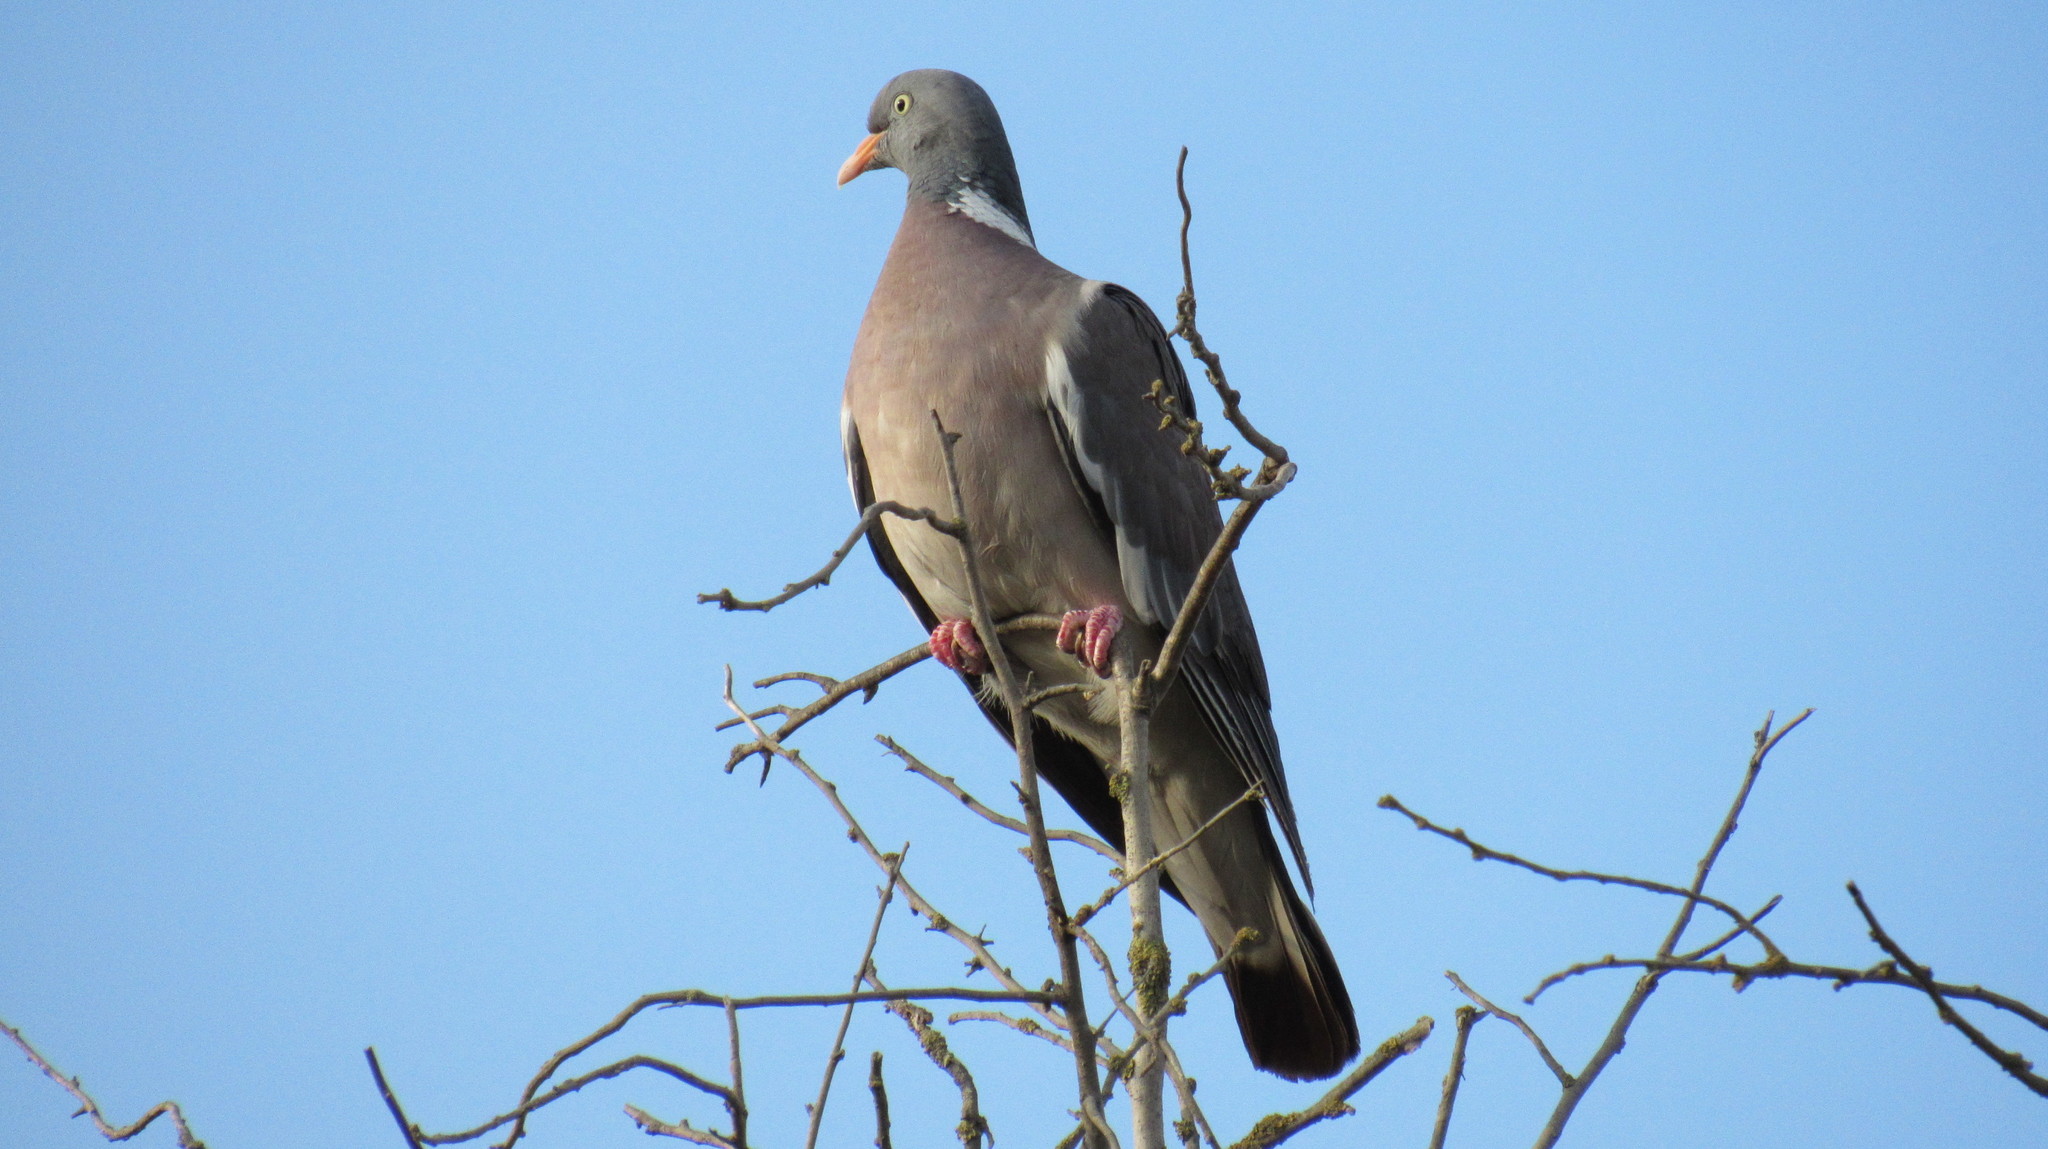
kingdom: Animalia
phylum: Chordata
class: Aves
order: Columbiformes
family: Columbidae
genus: Columba
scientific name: Columba palumbus
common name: Common wood pigeon
